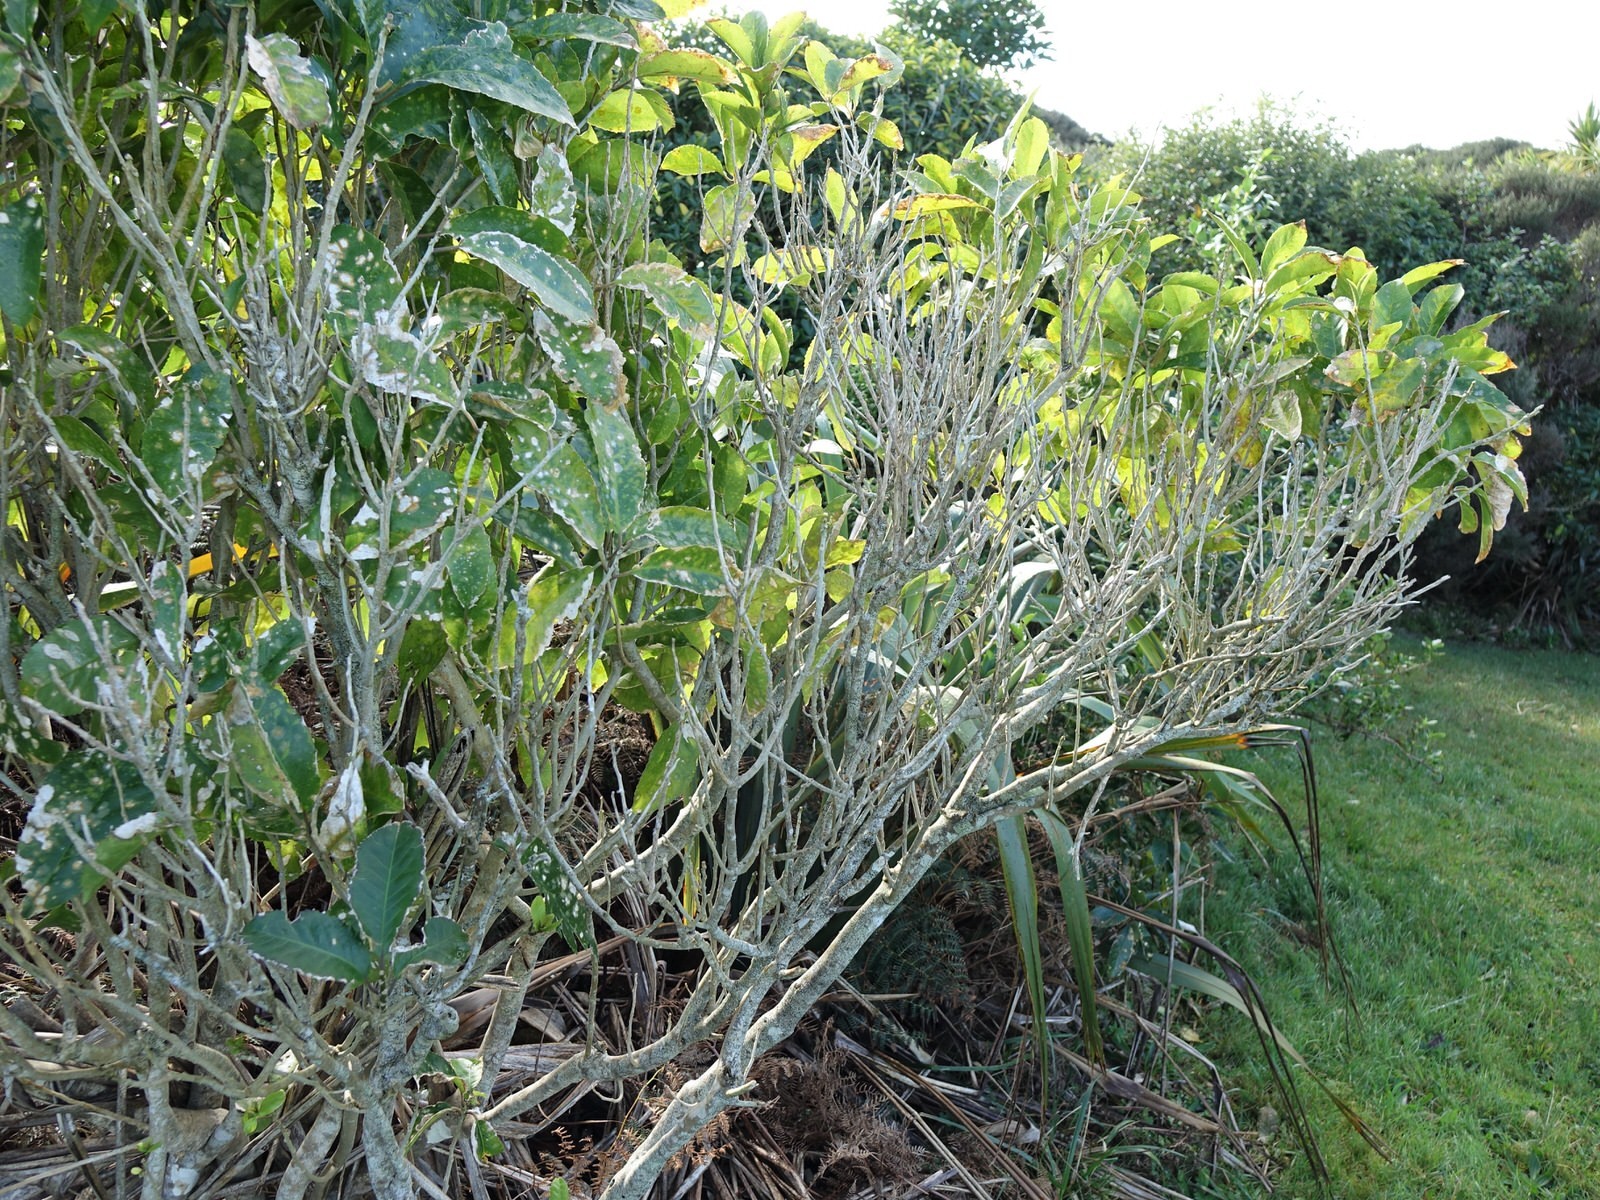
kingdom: Plantae
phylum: Tracheophyta
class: Magnoliopsida
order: Malpighiales
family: Violaceae
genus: Melicytus
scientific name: Melicytus ramiflorus
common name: Mahoe
